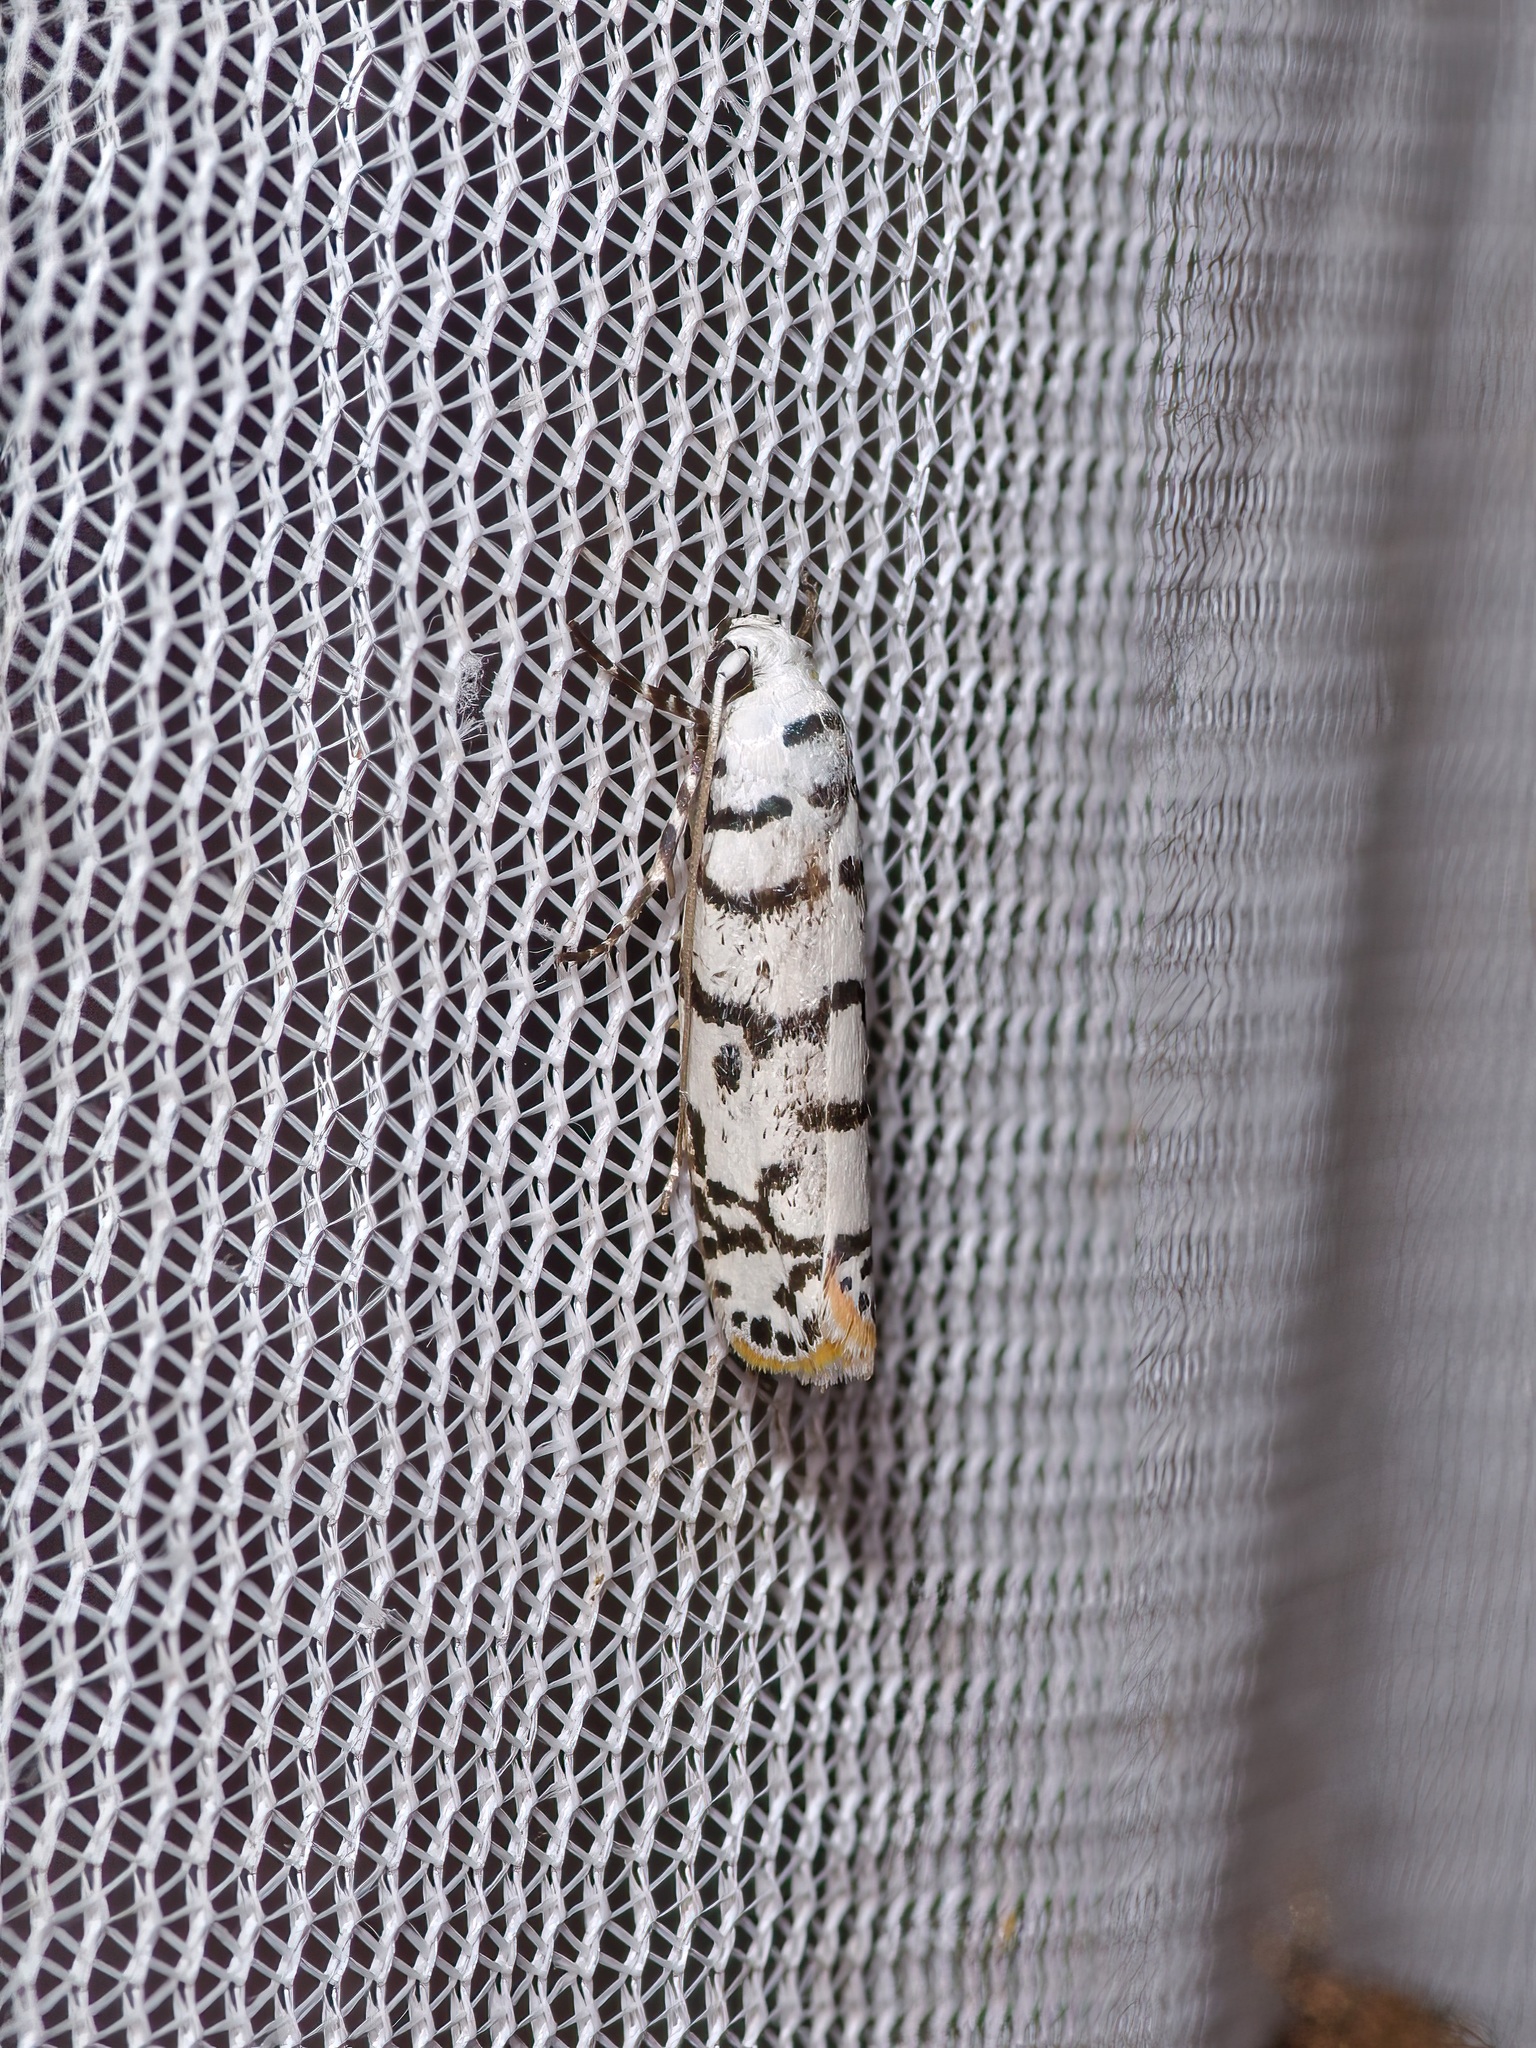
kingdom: Animalia
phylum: Arthropoda
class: Insecta
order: Lepidoptera
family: Ethmiidae
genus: Ethmia
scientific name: Ethmia delliella
